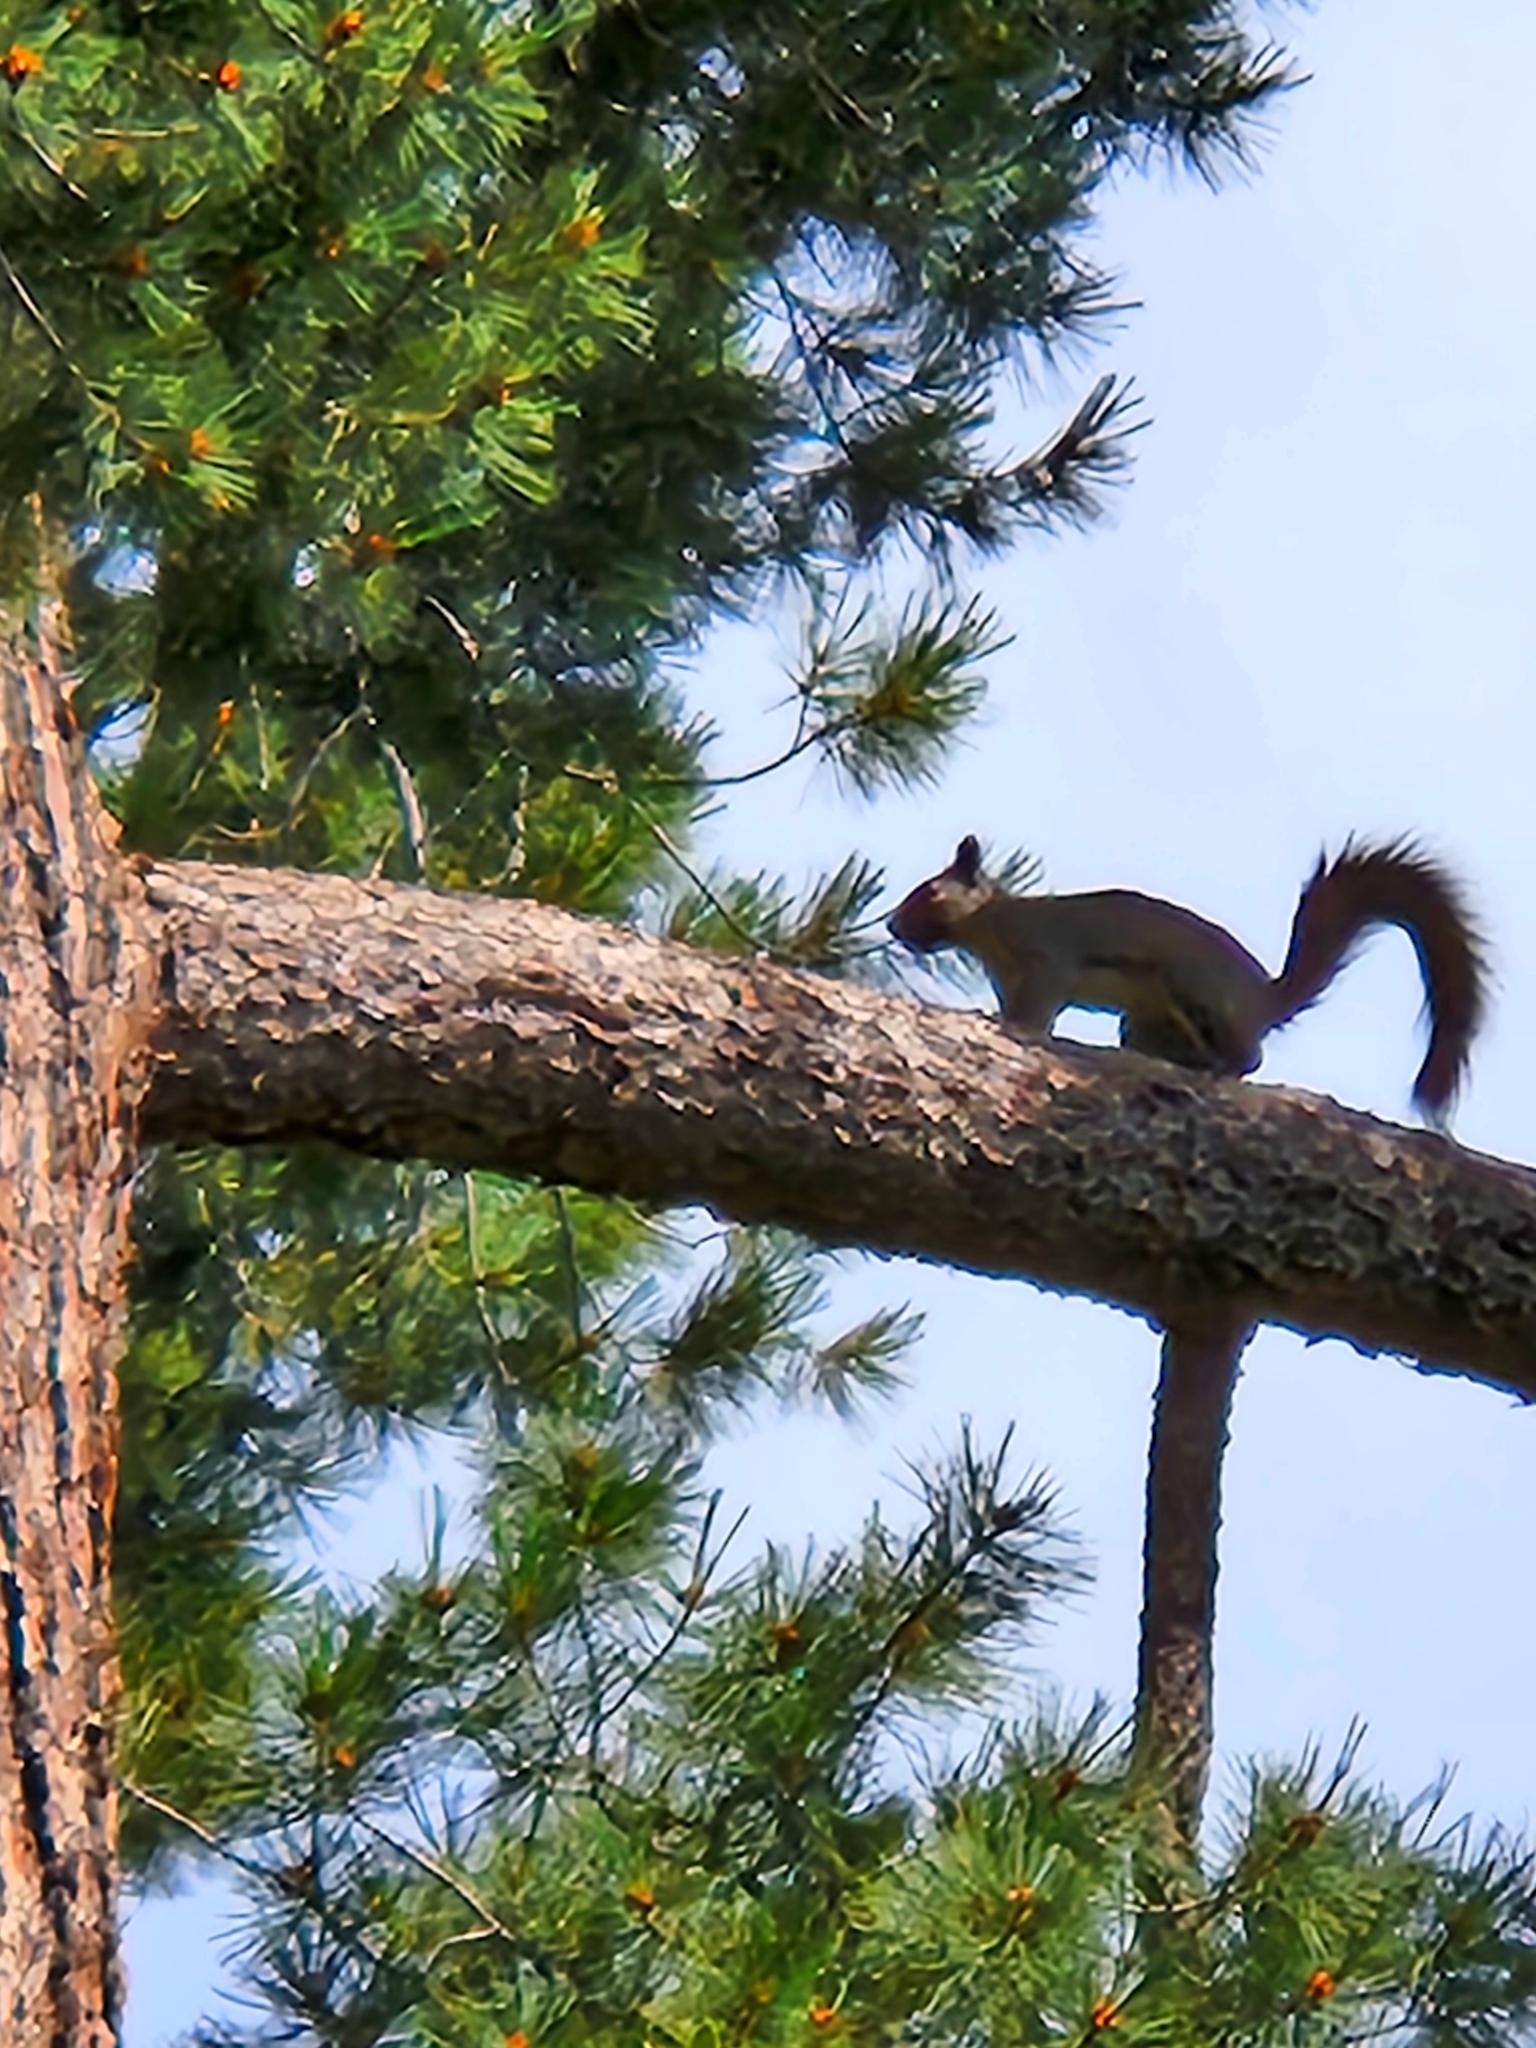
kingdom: Animalia
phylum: Chordata
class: Mammalia
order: Rodentia
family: Sciuridae
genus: Sciurus
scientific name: Sciurus griseus
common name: Western gray squirrel
